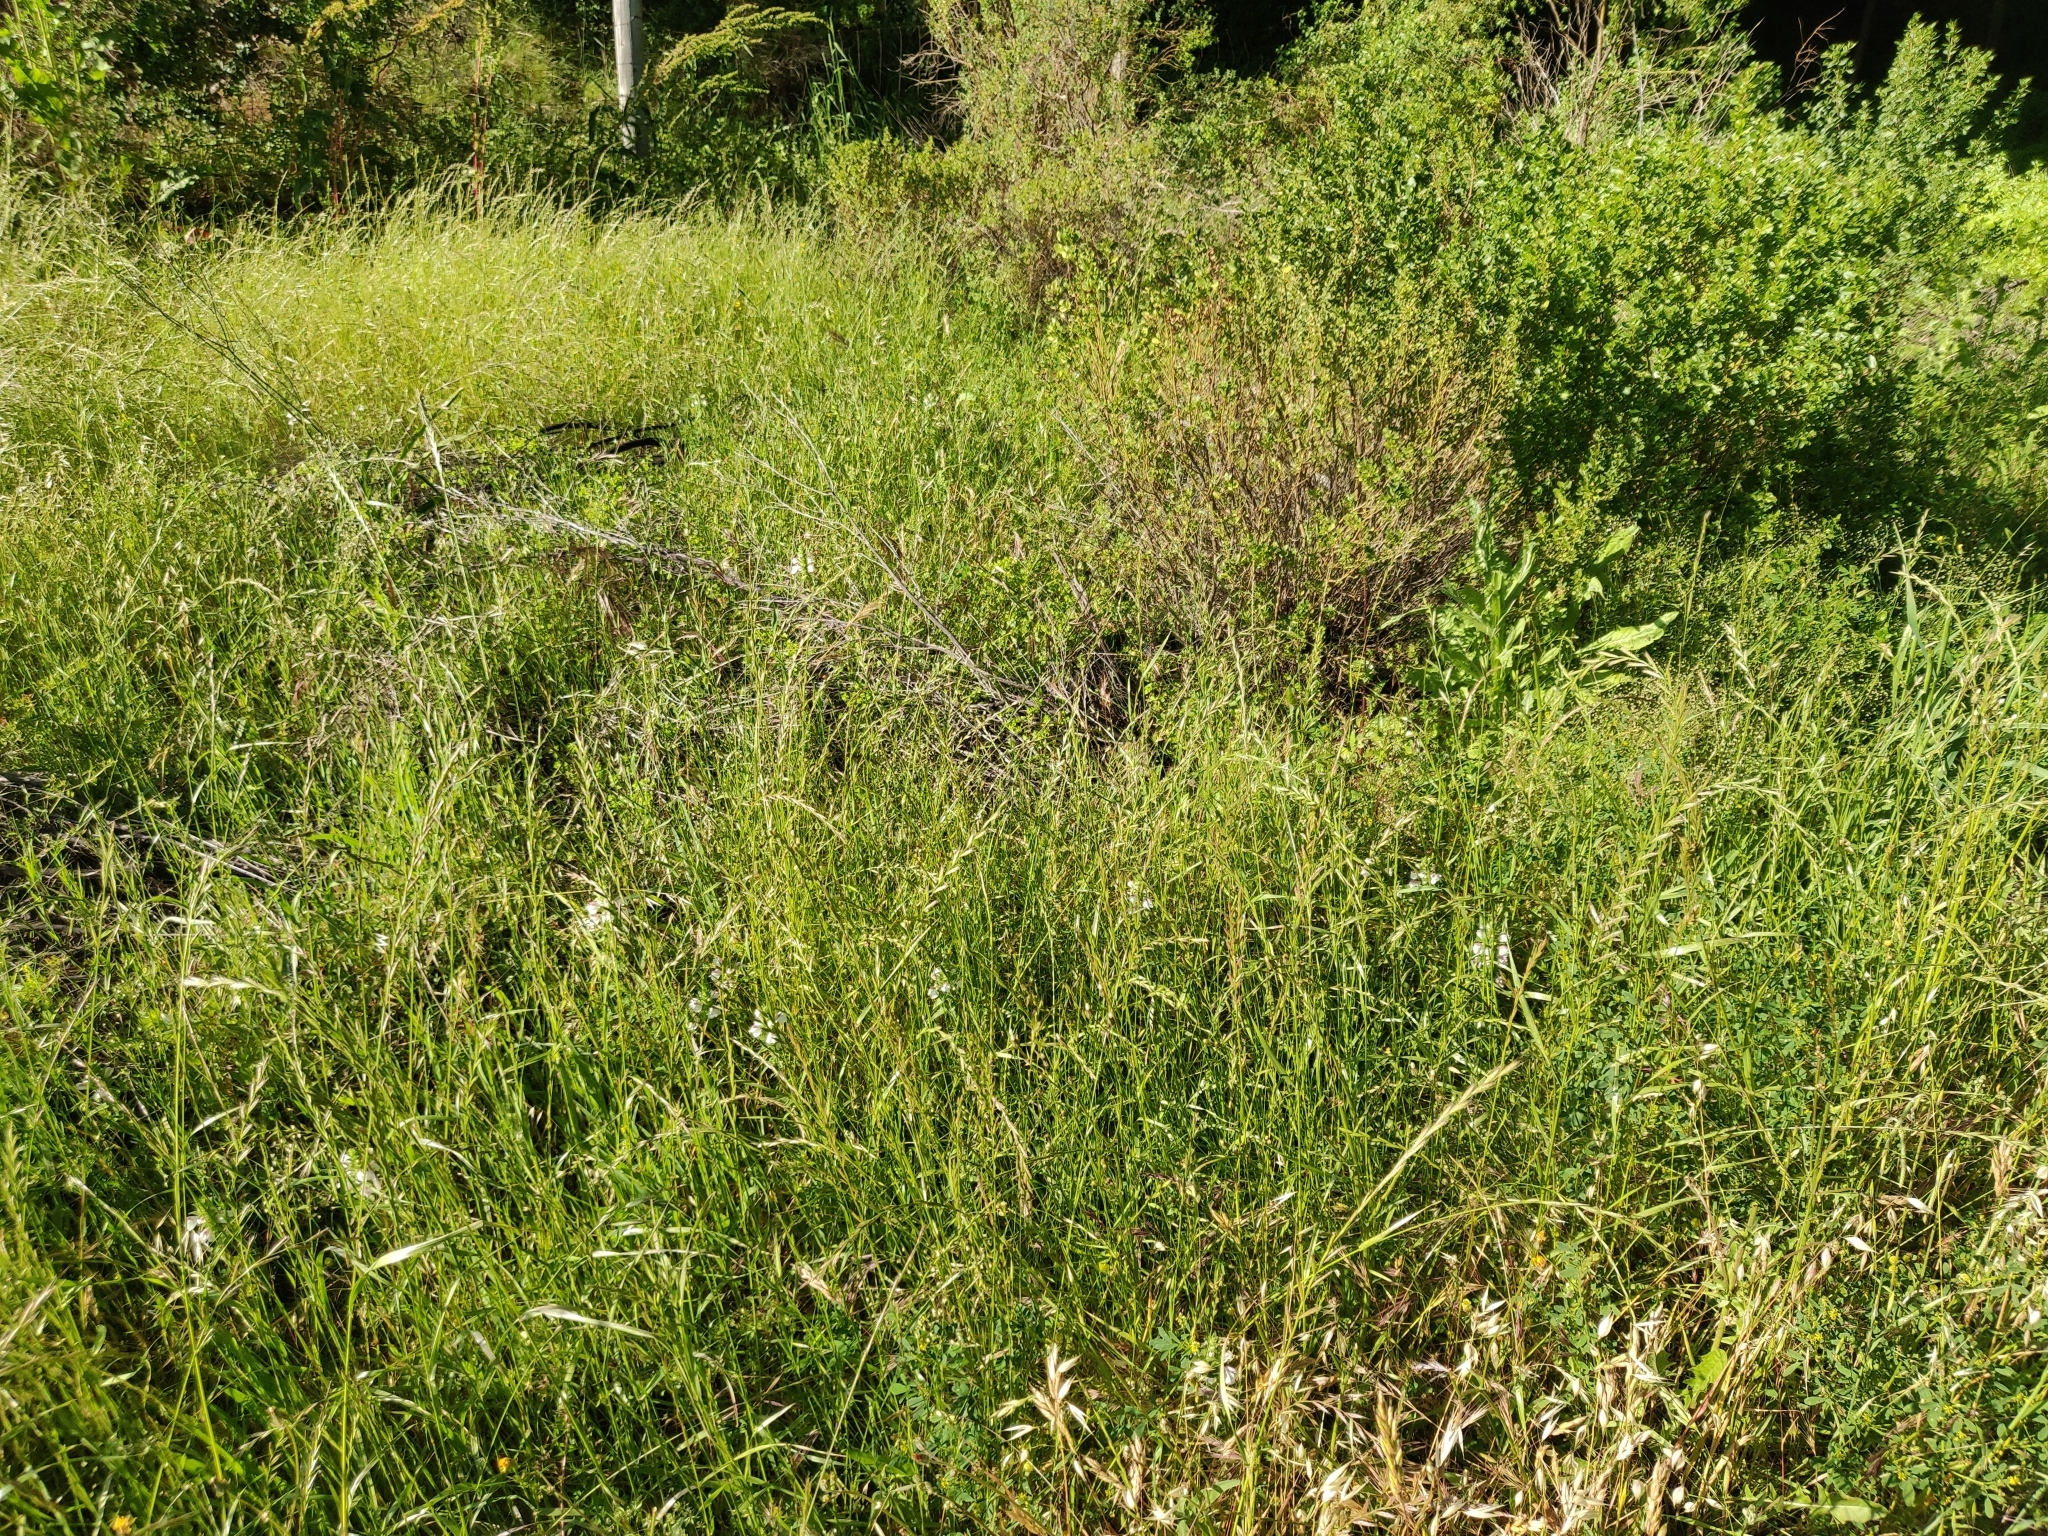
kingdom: Plantae
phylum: Tracheophyta
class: Magnoliopsida
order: Lamiales
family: Orobanchaceae
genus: Bellardia
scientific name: Bellardia trixago
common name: Mediterranean lineseed
